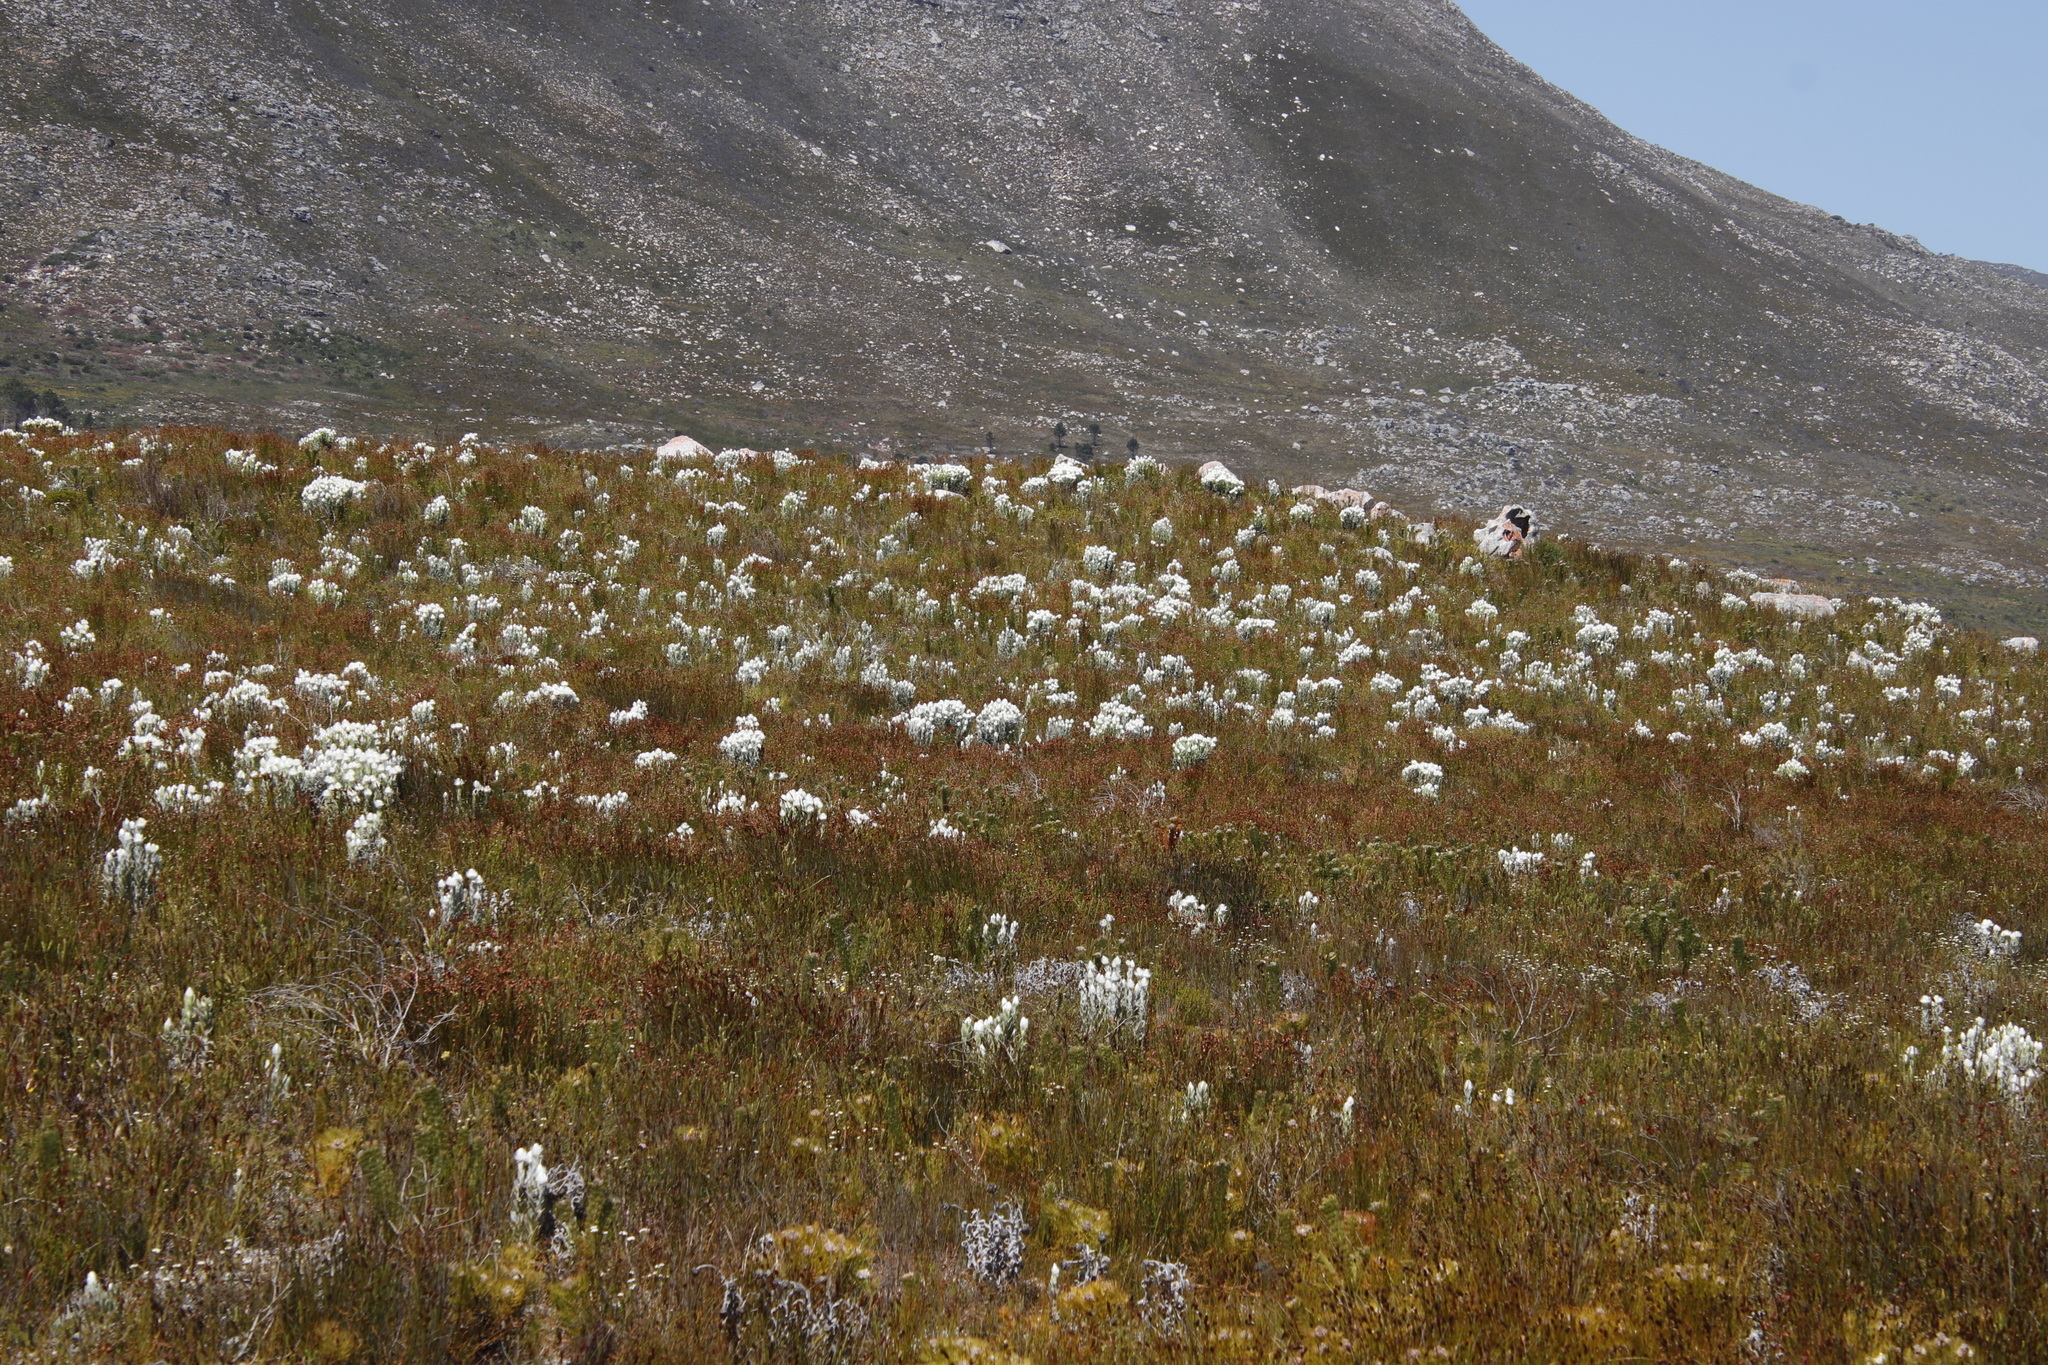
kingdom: Plantae
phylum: Tracheophyta
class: Magnoliopsida
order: Asterales
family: Asteraceae
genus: Syncarpha
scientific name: Syncarpha vestita
